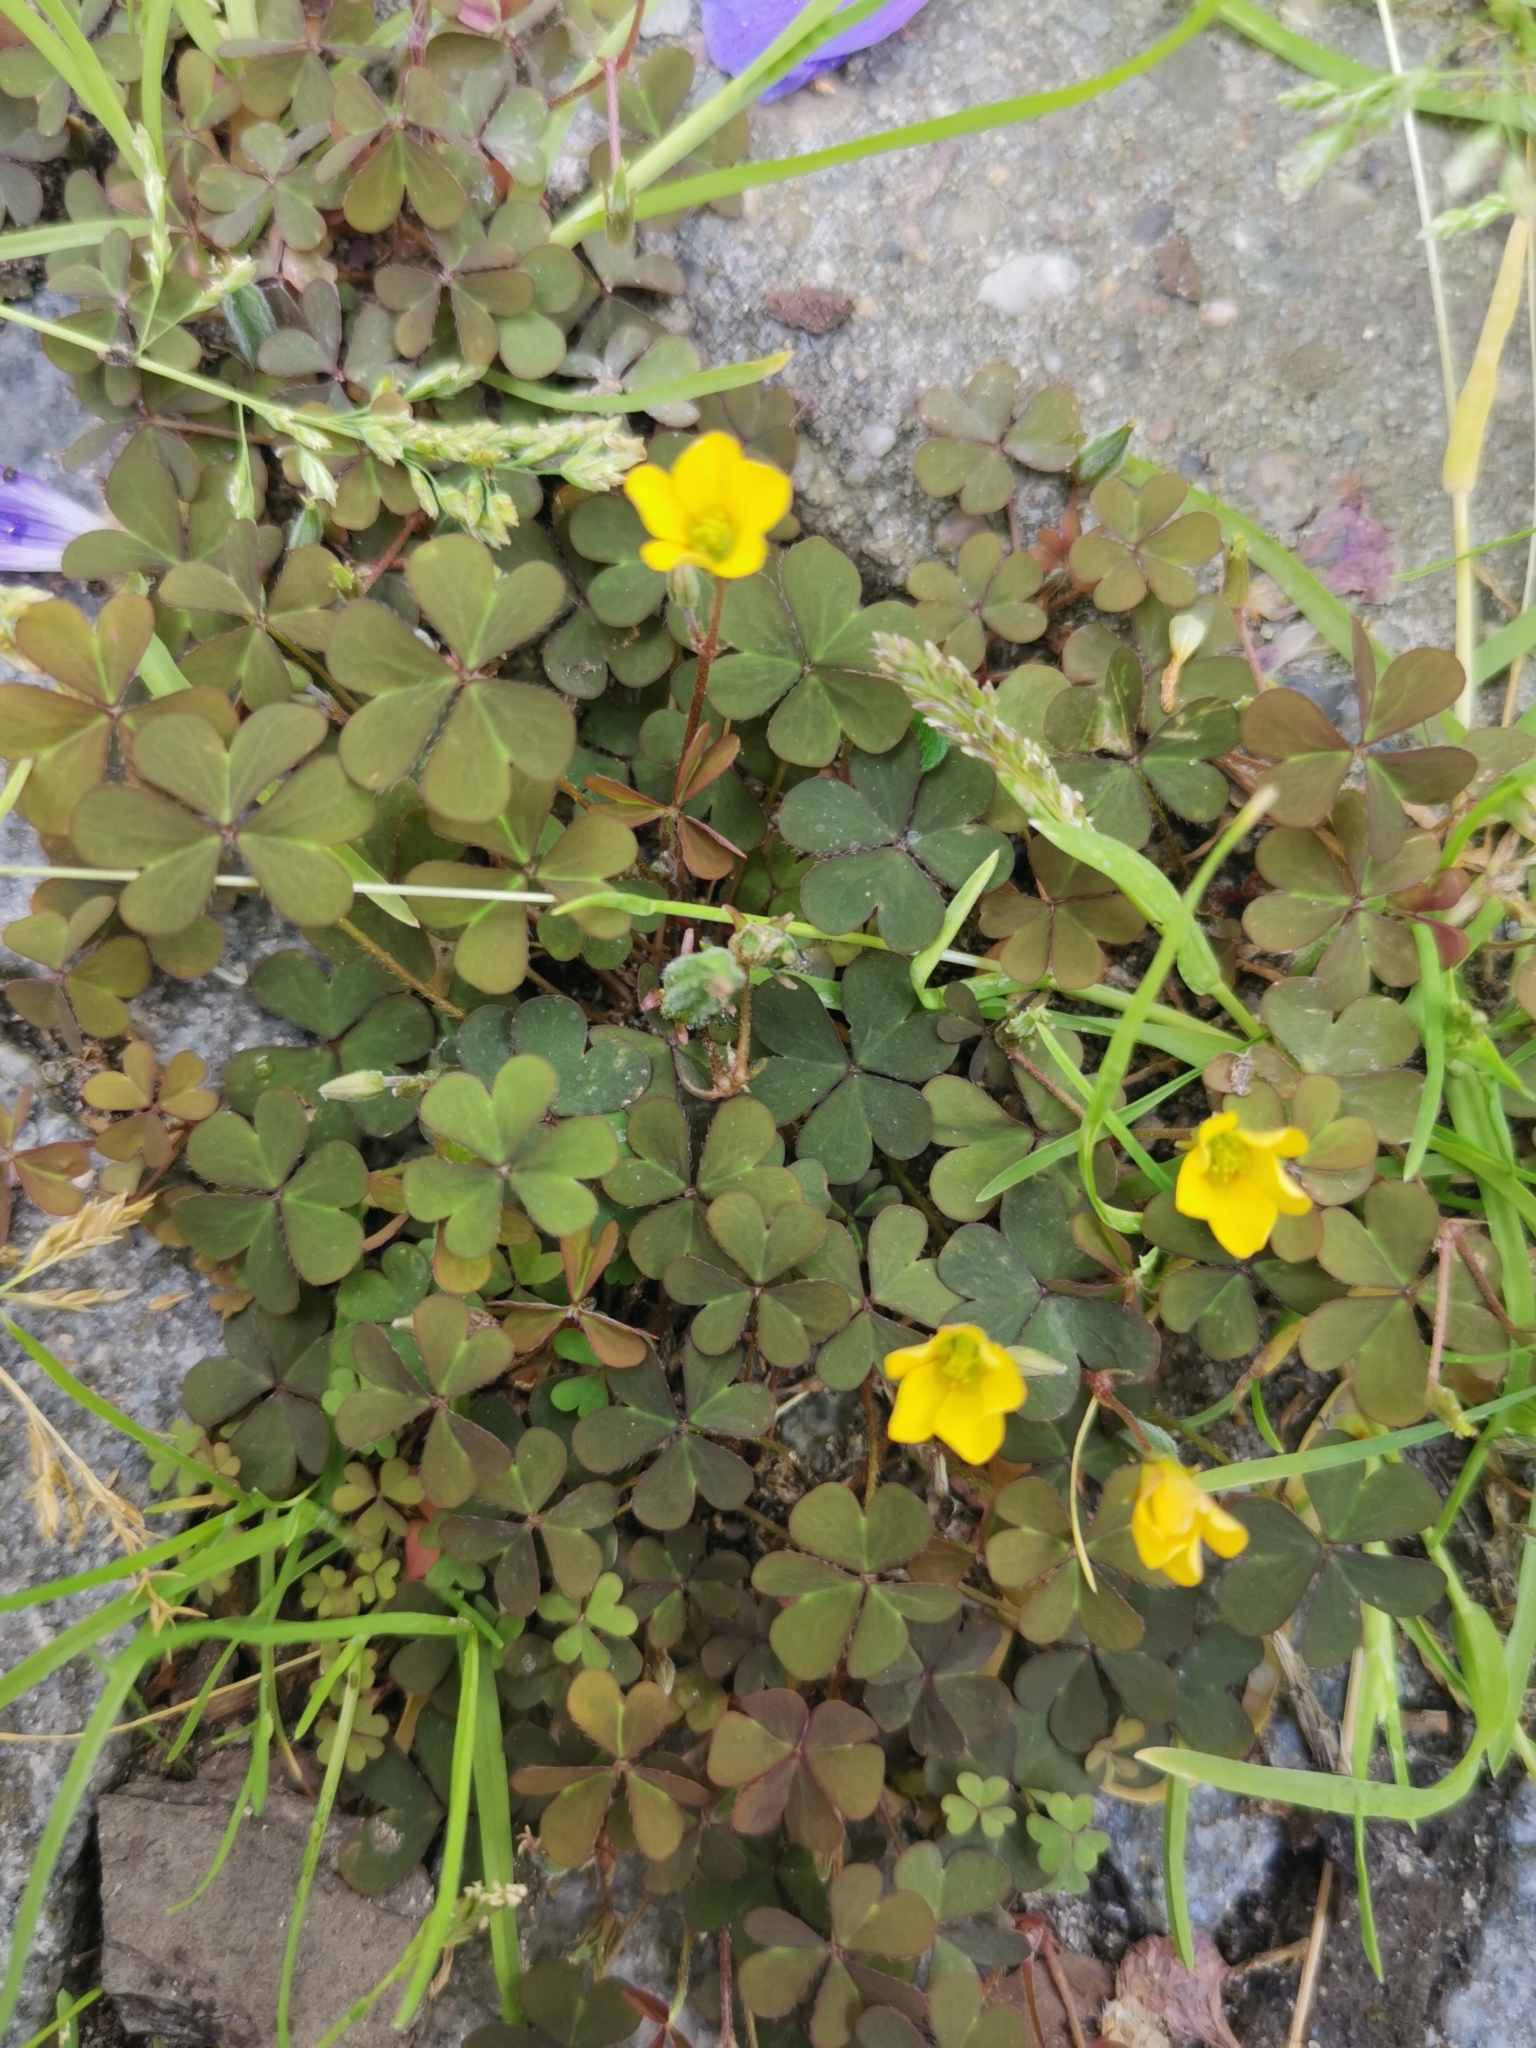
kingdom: Plantae
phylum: Tracheophyta
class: Magnoliopsida
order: Oxalidales
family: Oxalidaceae
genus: Oxalis
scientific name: Oxalis corniculata
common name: Procumbent yellow-sorrel
